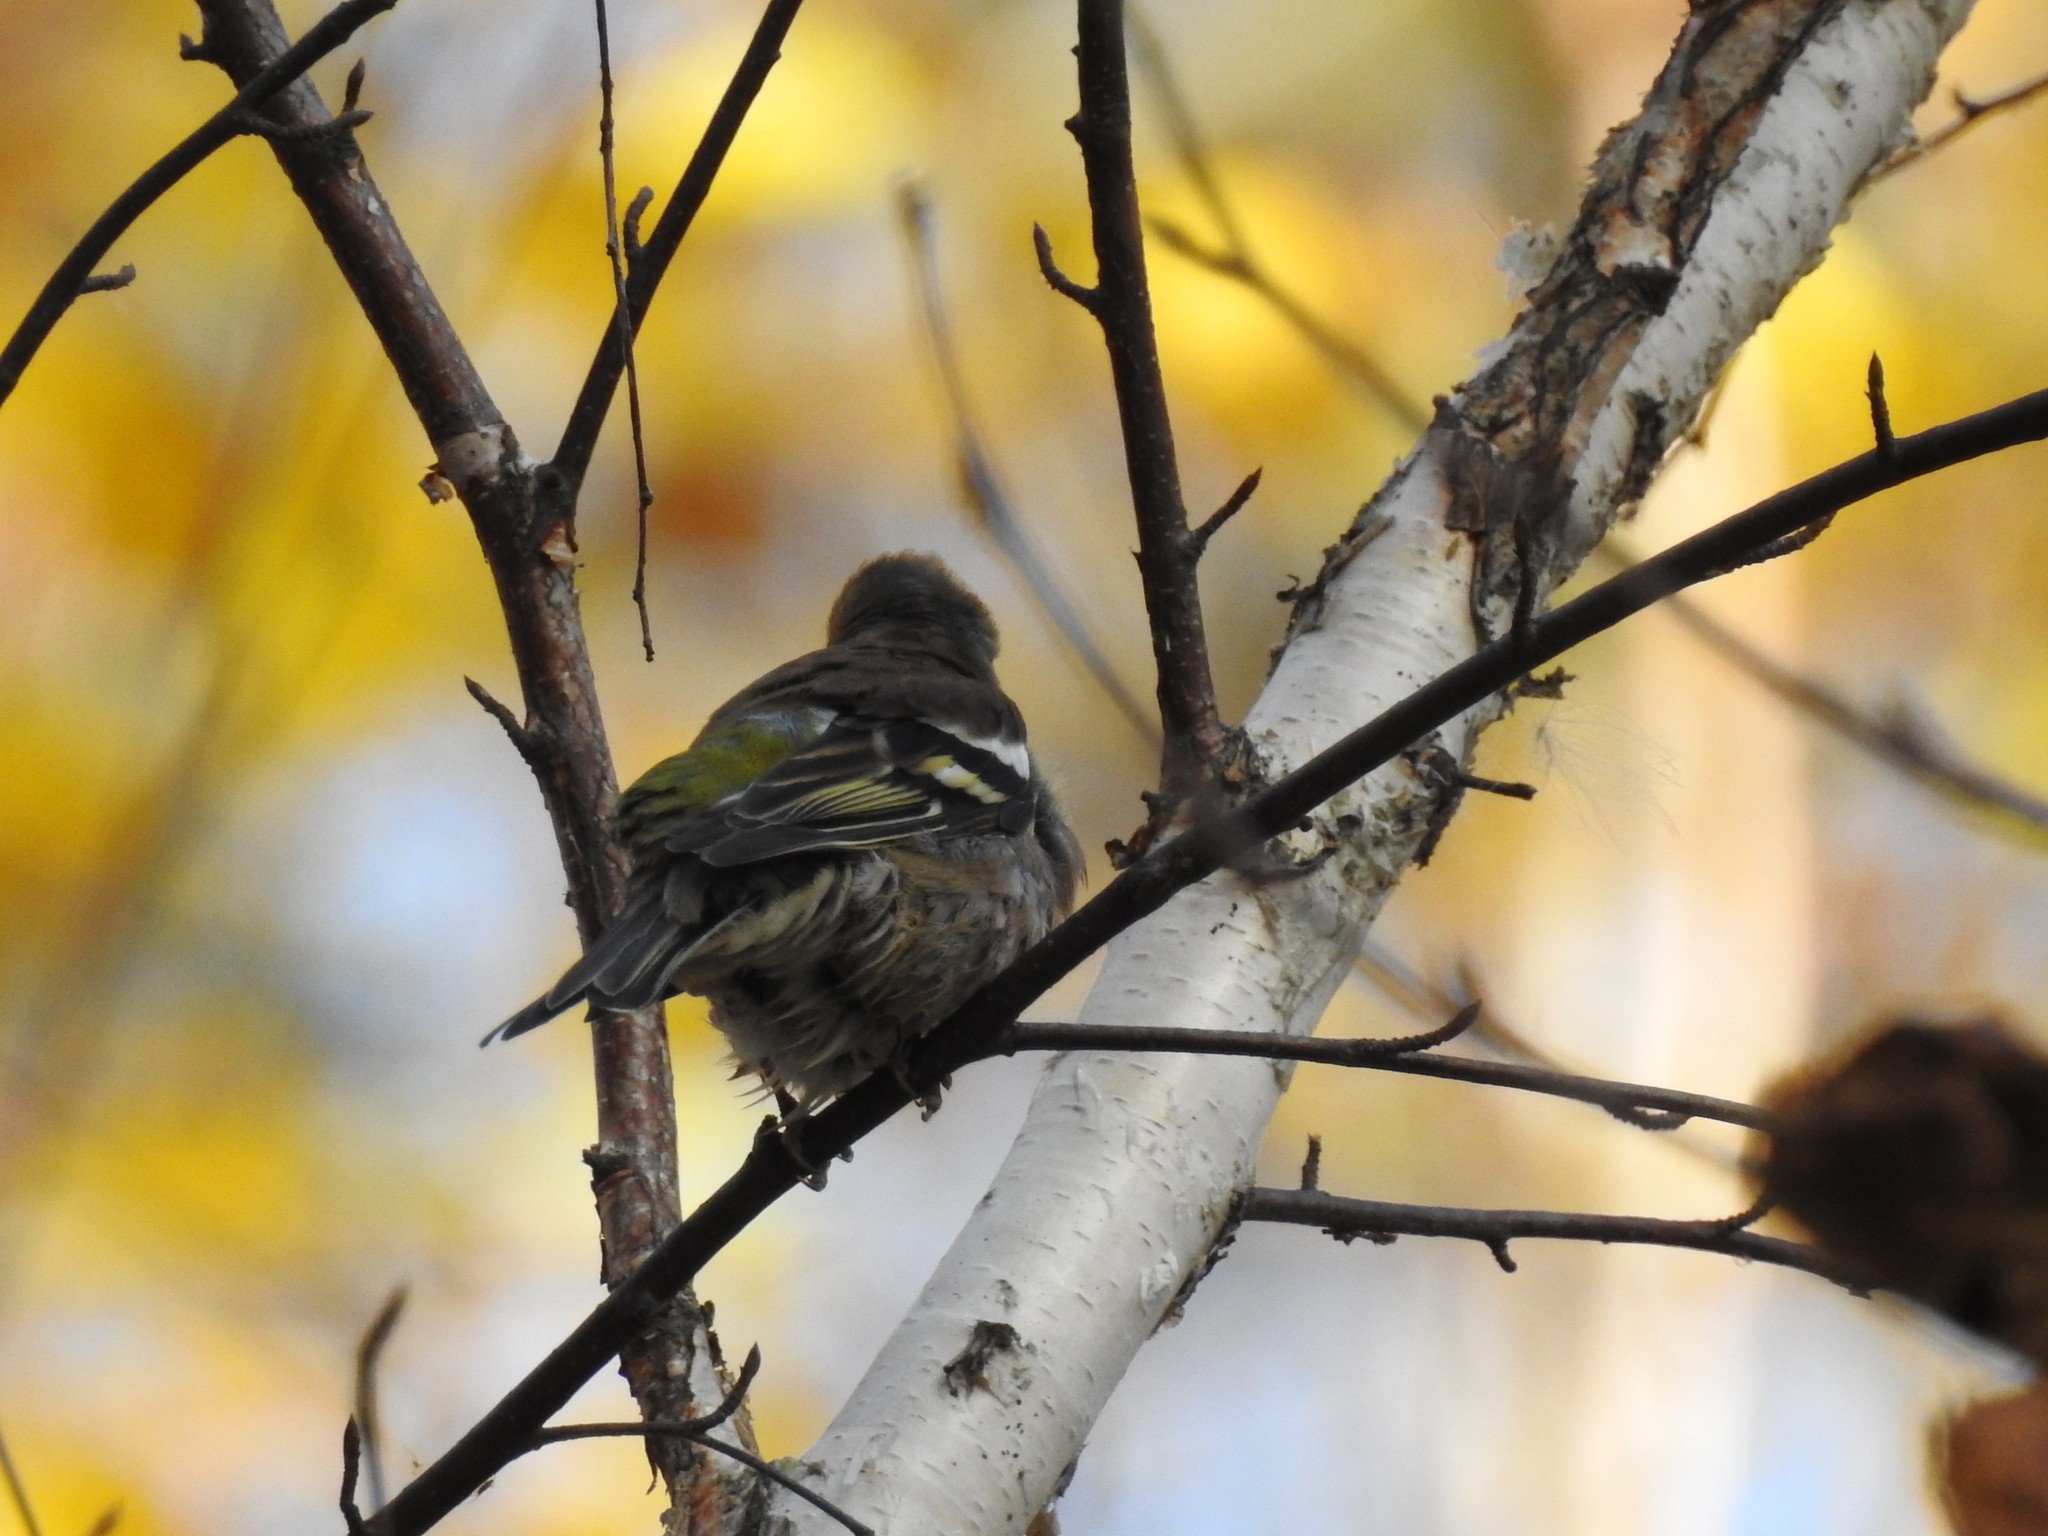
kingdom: Animalia
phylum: Chordata
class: Aves
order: Passeriformes
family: Fringillidae
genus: Fringilla
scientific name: Fringilla coelebs
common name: Common chaffinch
